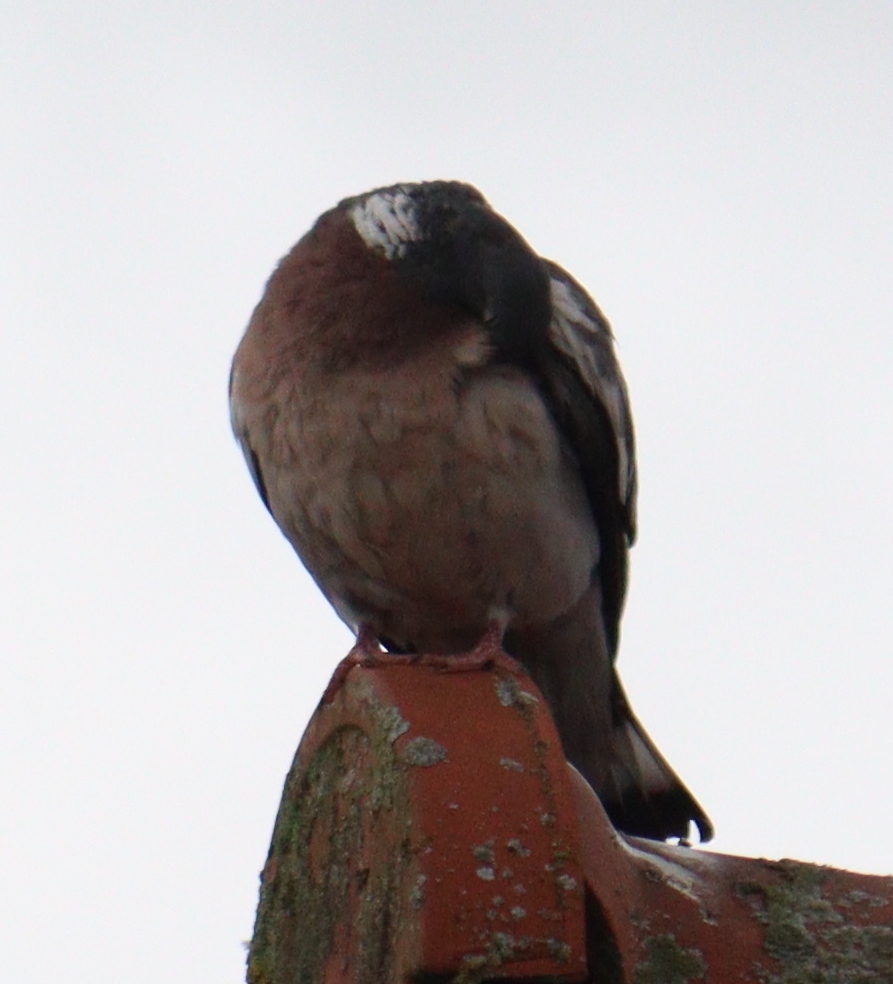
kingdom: Animalia
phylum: Chordata
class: Aves
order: Columbiformes
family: Columbidae
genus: Columba
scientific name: Columba palumbus
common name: Common wood pigeon
